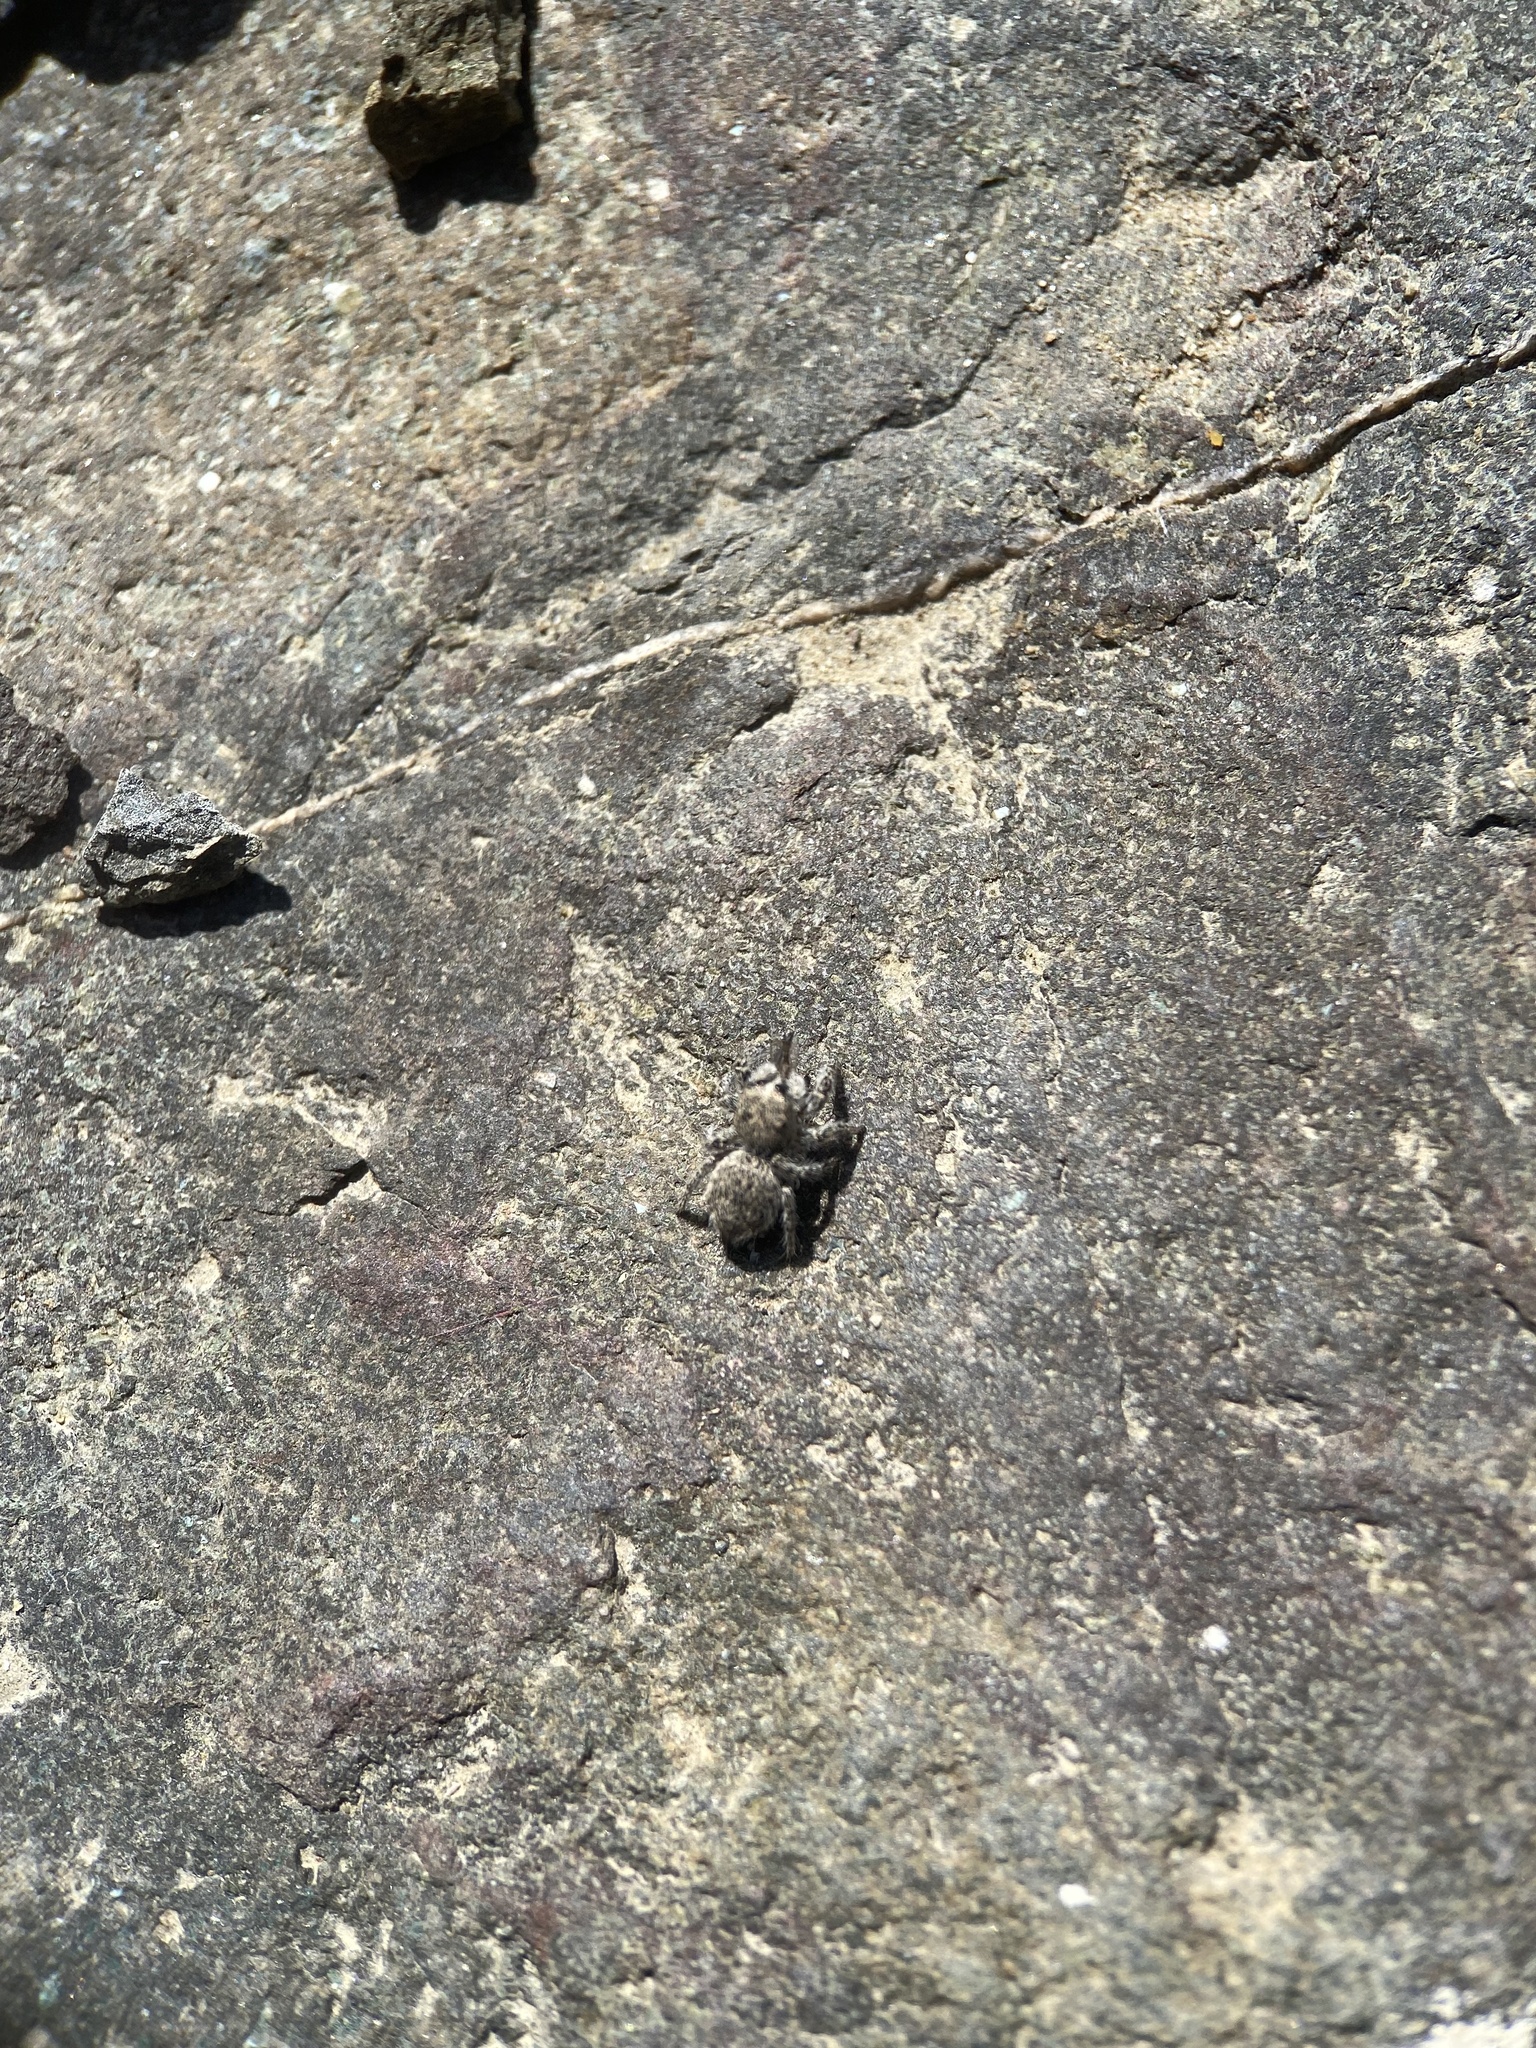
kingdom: Animalia
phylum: Arthropoda
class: Arachnida
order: Araneae
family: Salticidae
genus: Habronattus
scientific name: Habronattus hirsutus
